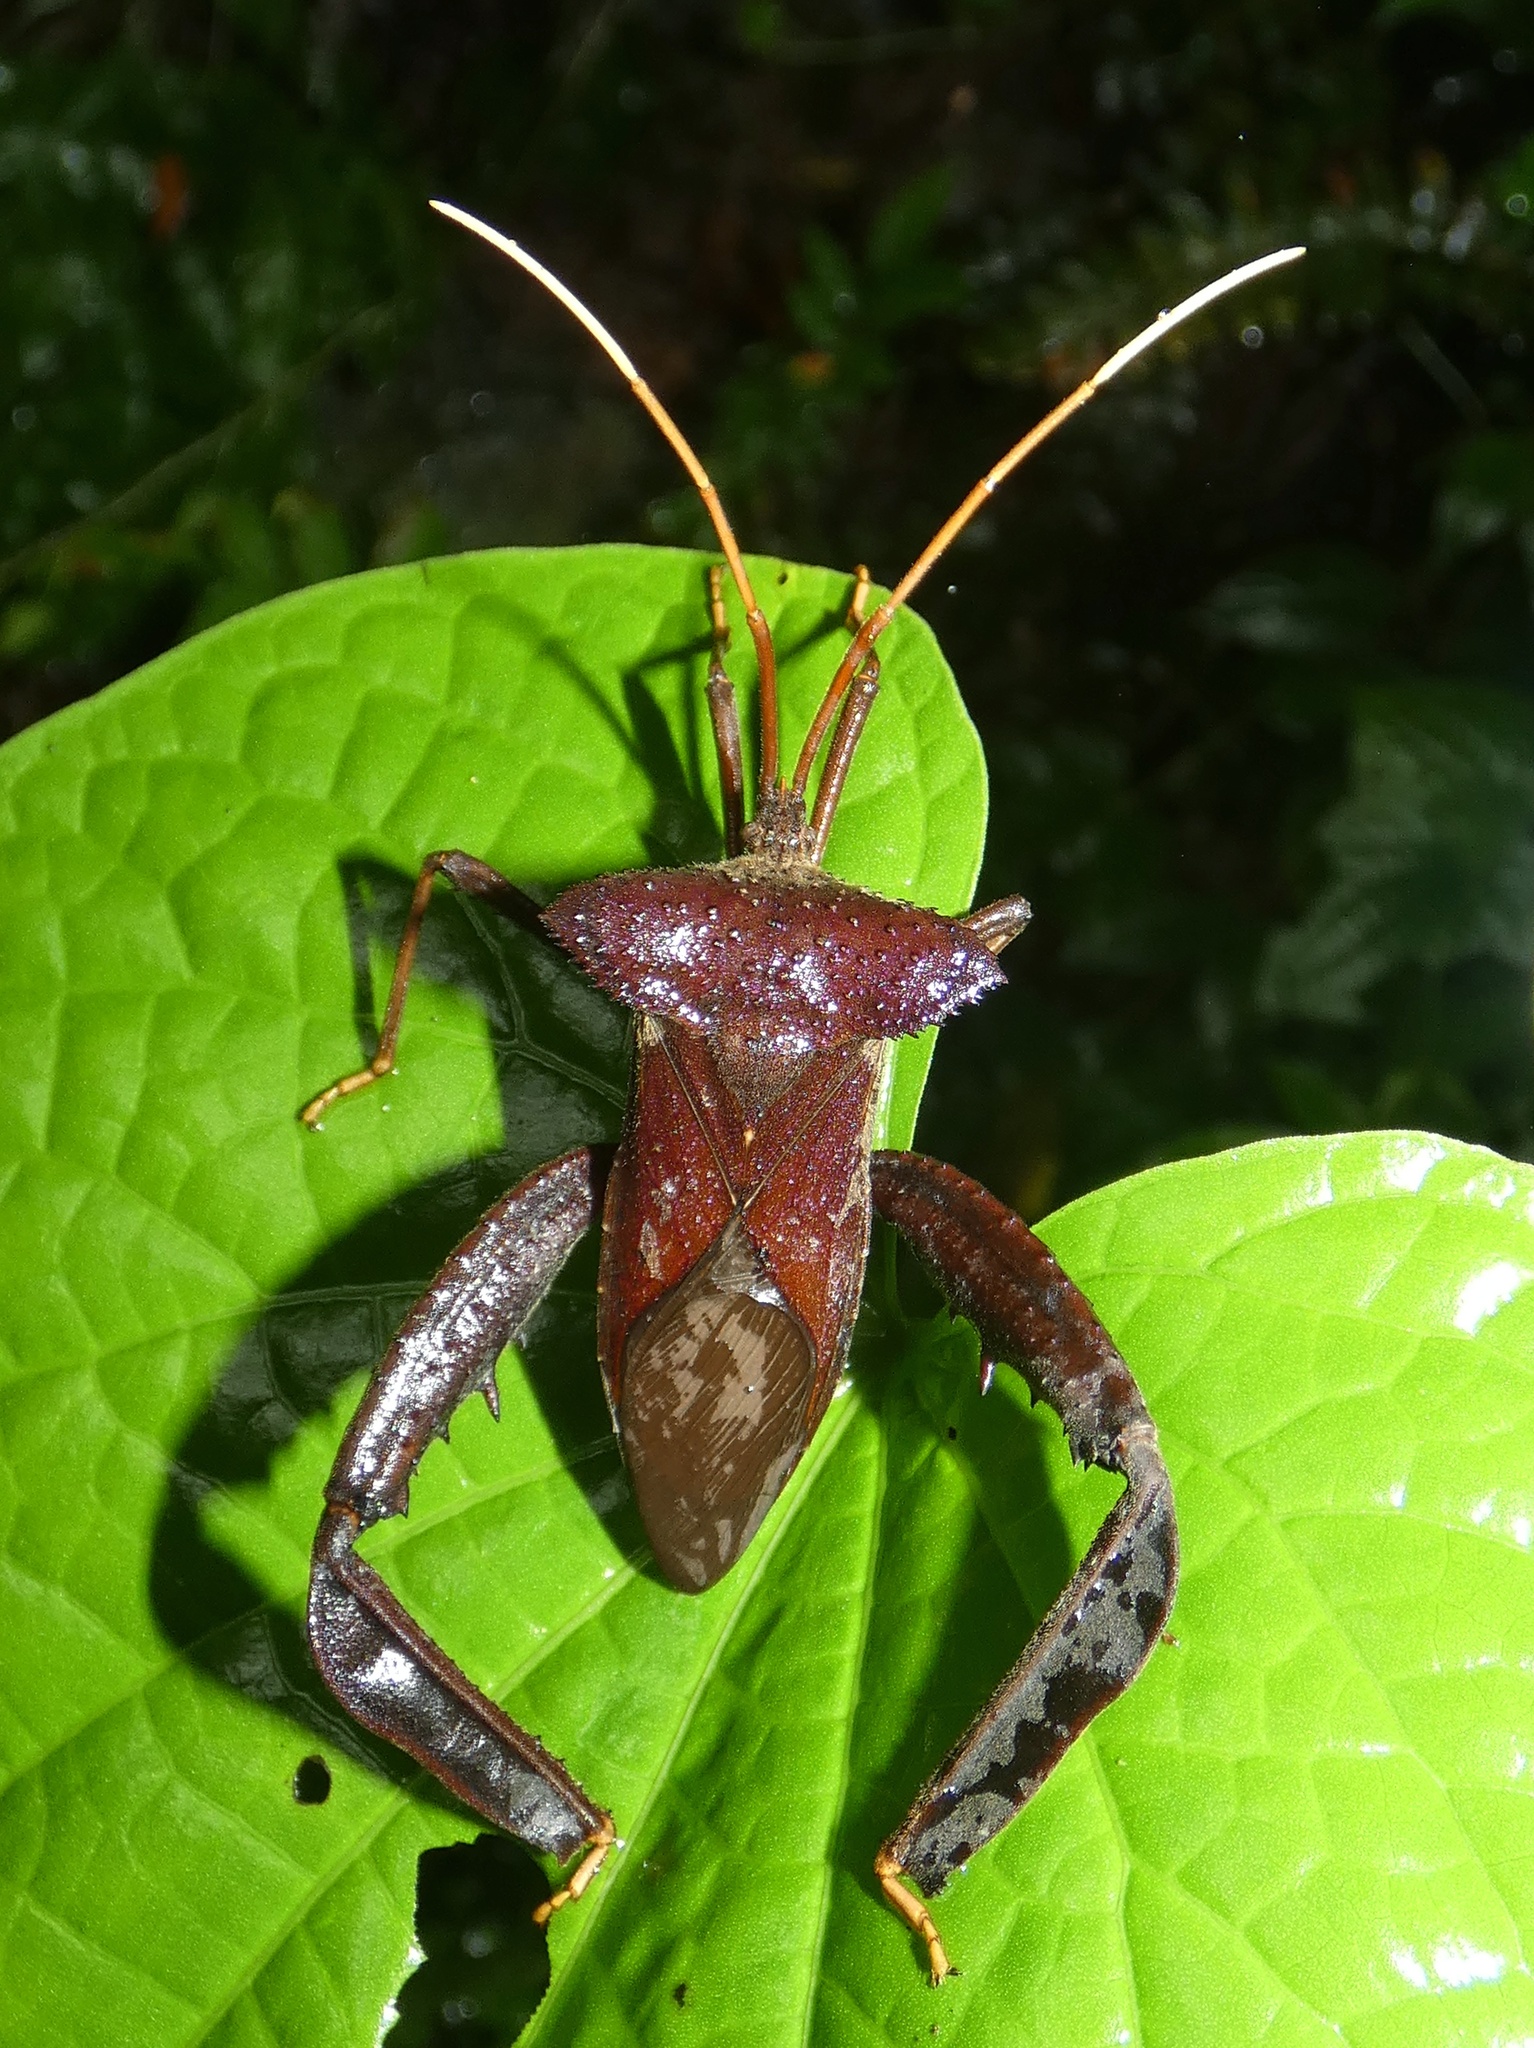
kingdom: Animalia
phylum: Arthropoda
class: Insecta
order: Hemiptera
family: Coreidae
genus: Acanthocephala
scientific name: Acanthocephala alata
